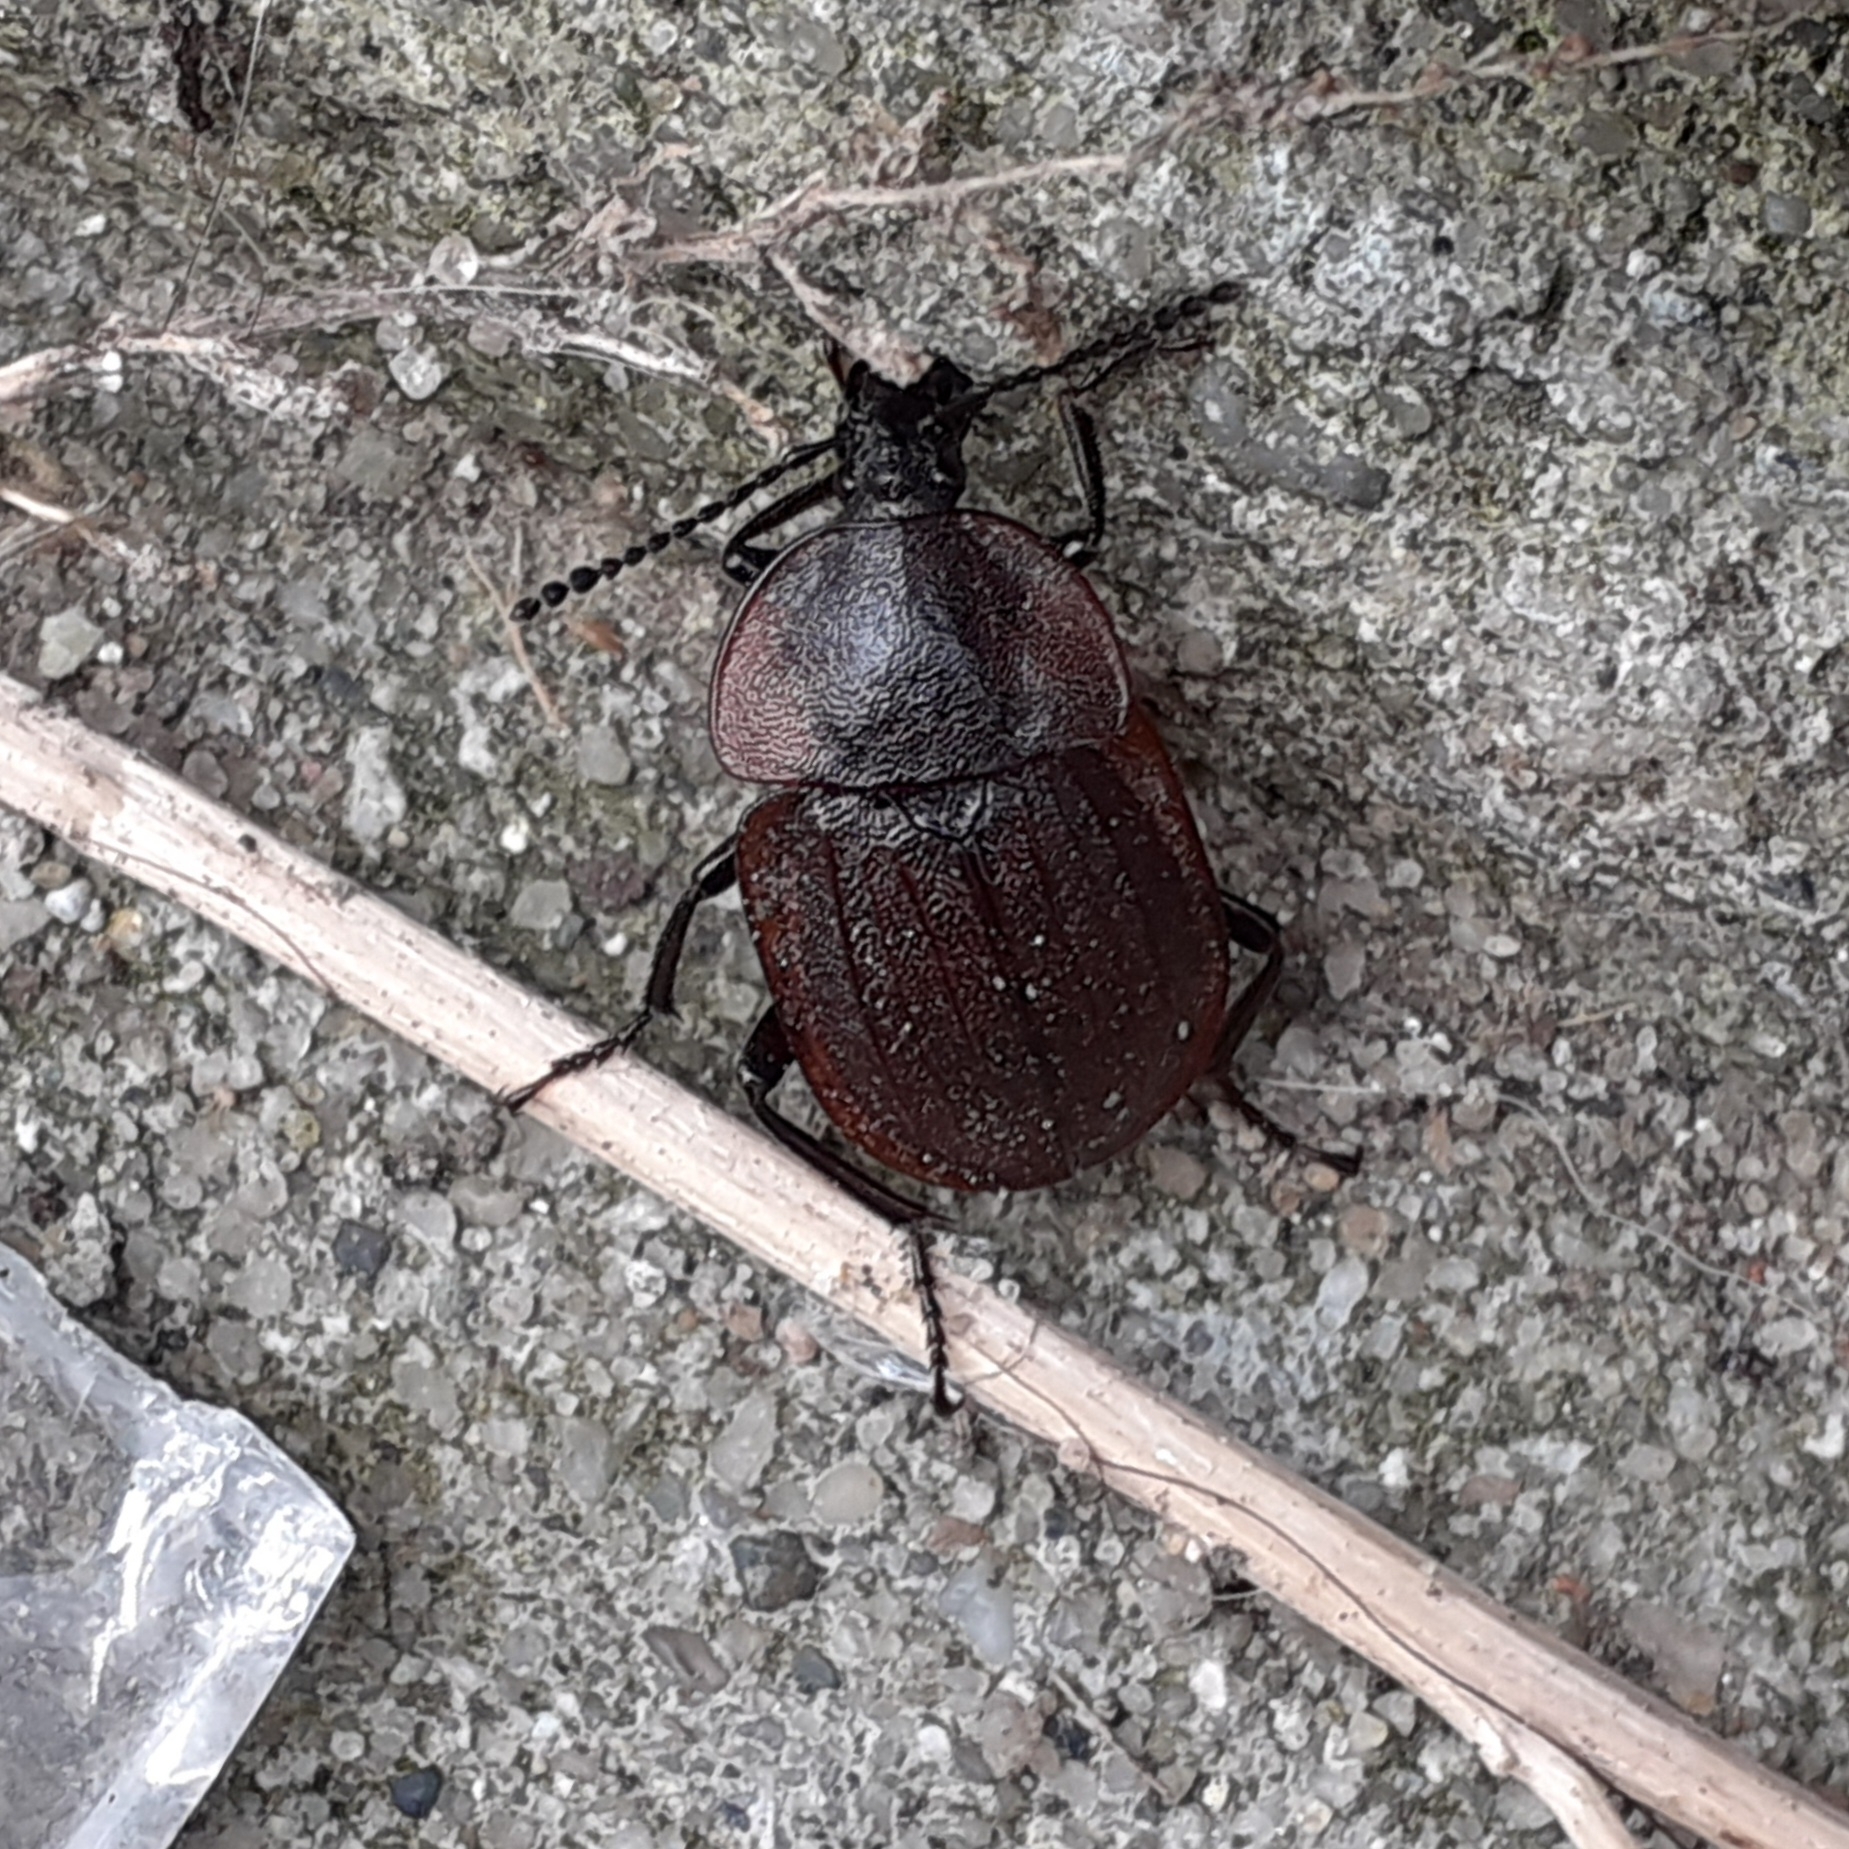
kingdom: Animalia
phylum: Arthropoda
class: Insecta
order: Coleoptera
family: Staphylinidae
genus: Silpha
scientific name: Silpha atrata
